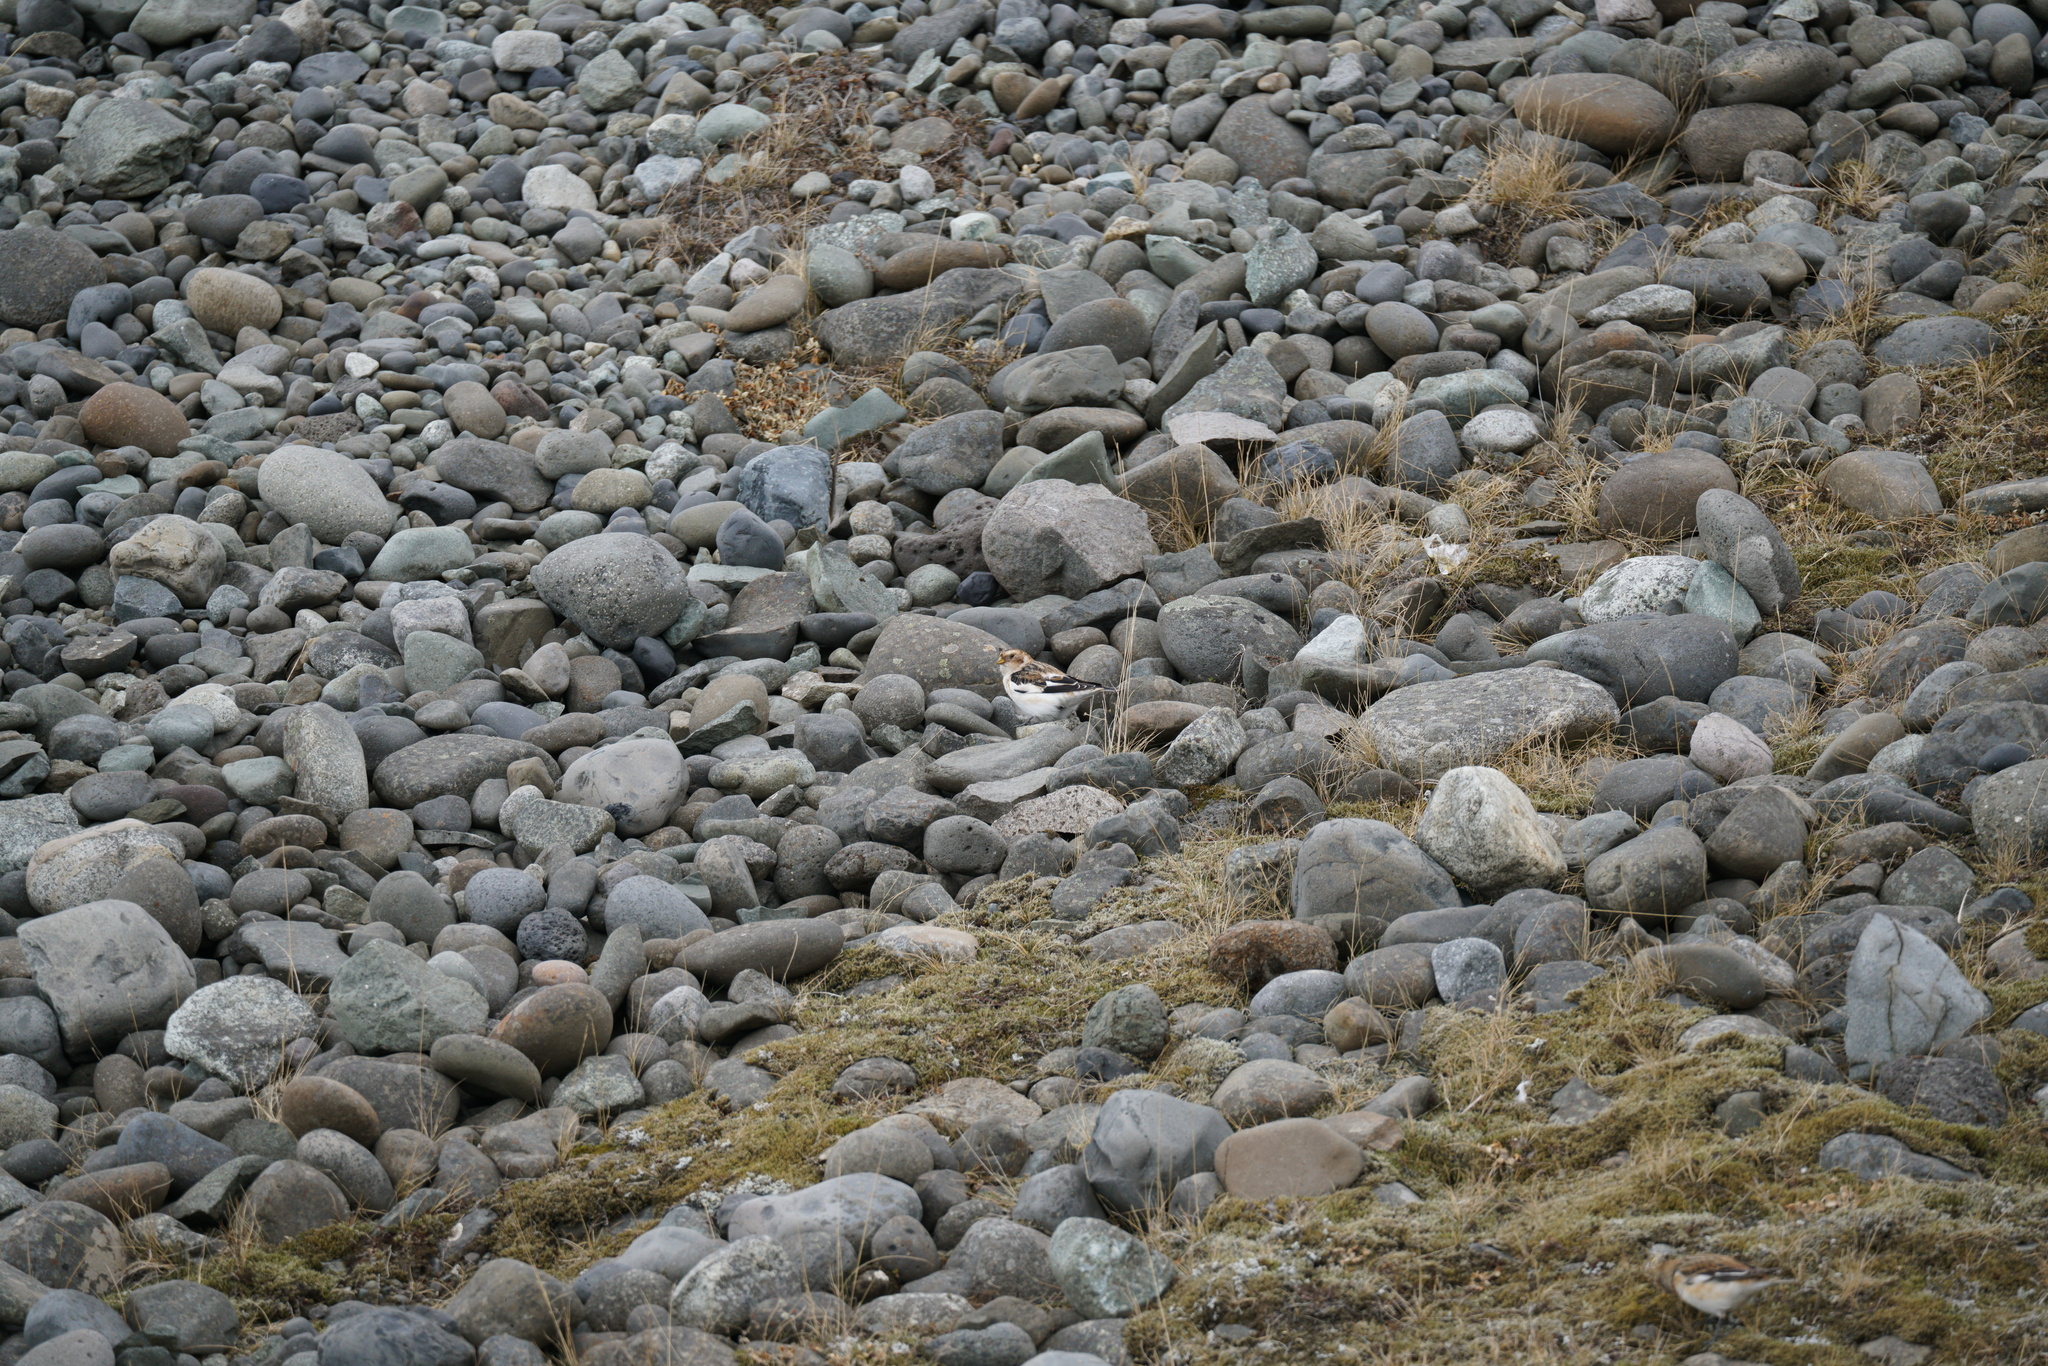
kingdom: Animalia
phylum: Chordata
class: Aves
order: Passeriformes
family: Calcariidae
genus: Plectrophenax
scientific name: Plectrophenax nivalis
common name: Snow bunting
